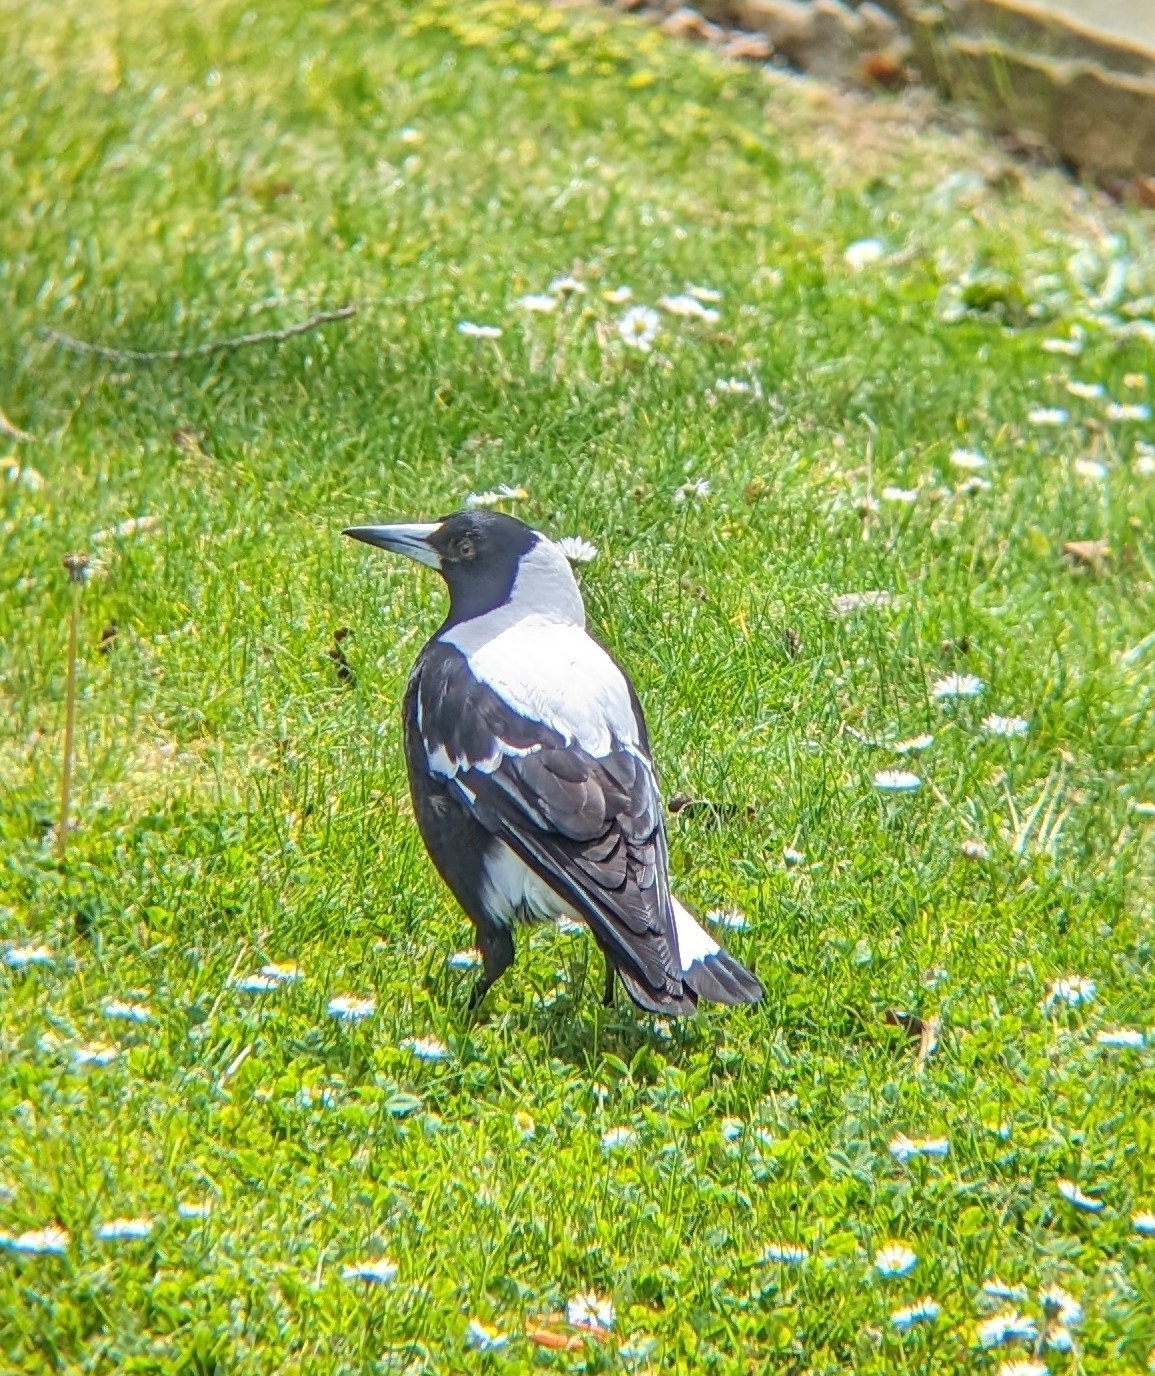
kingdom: Animalia
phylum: Chordata
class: Aves
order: Passeriformes
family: Cracticidae
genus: Gymnorhina
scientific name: Gymnorhina tibicen
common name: Australian magpie
